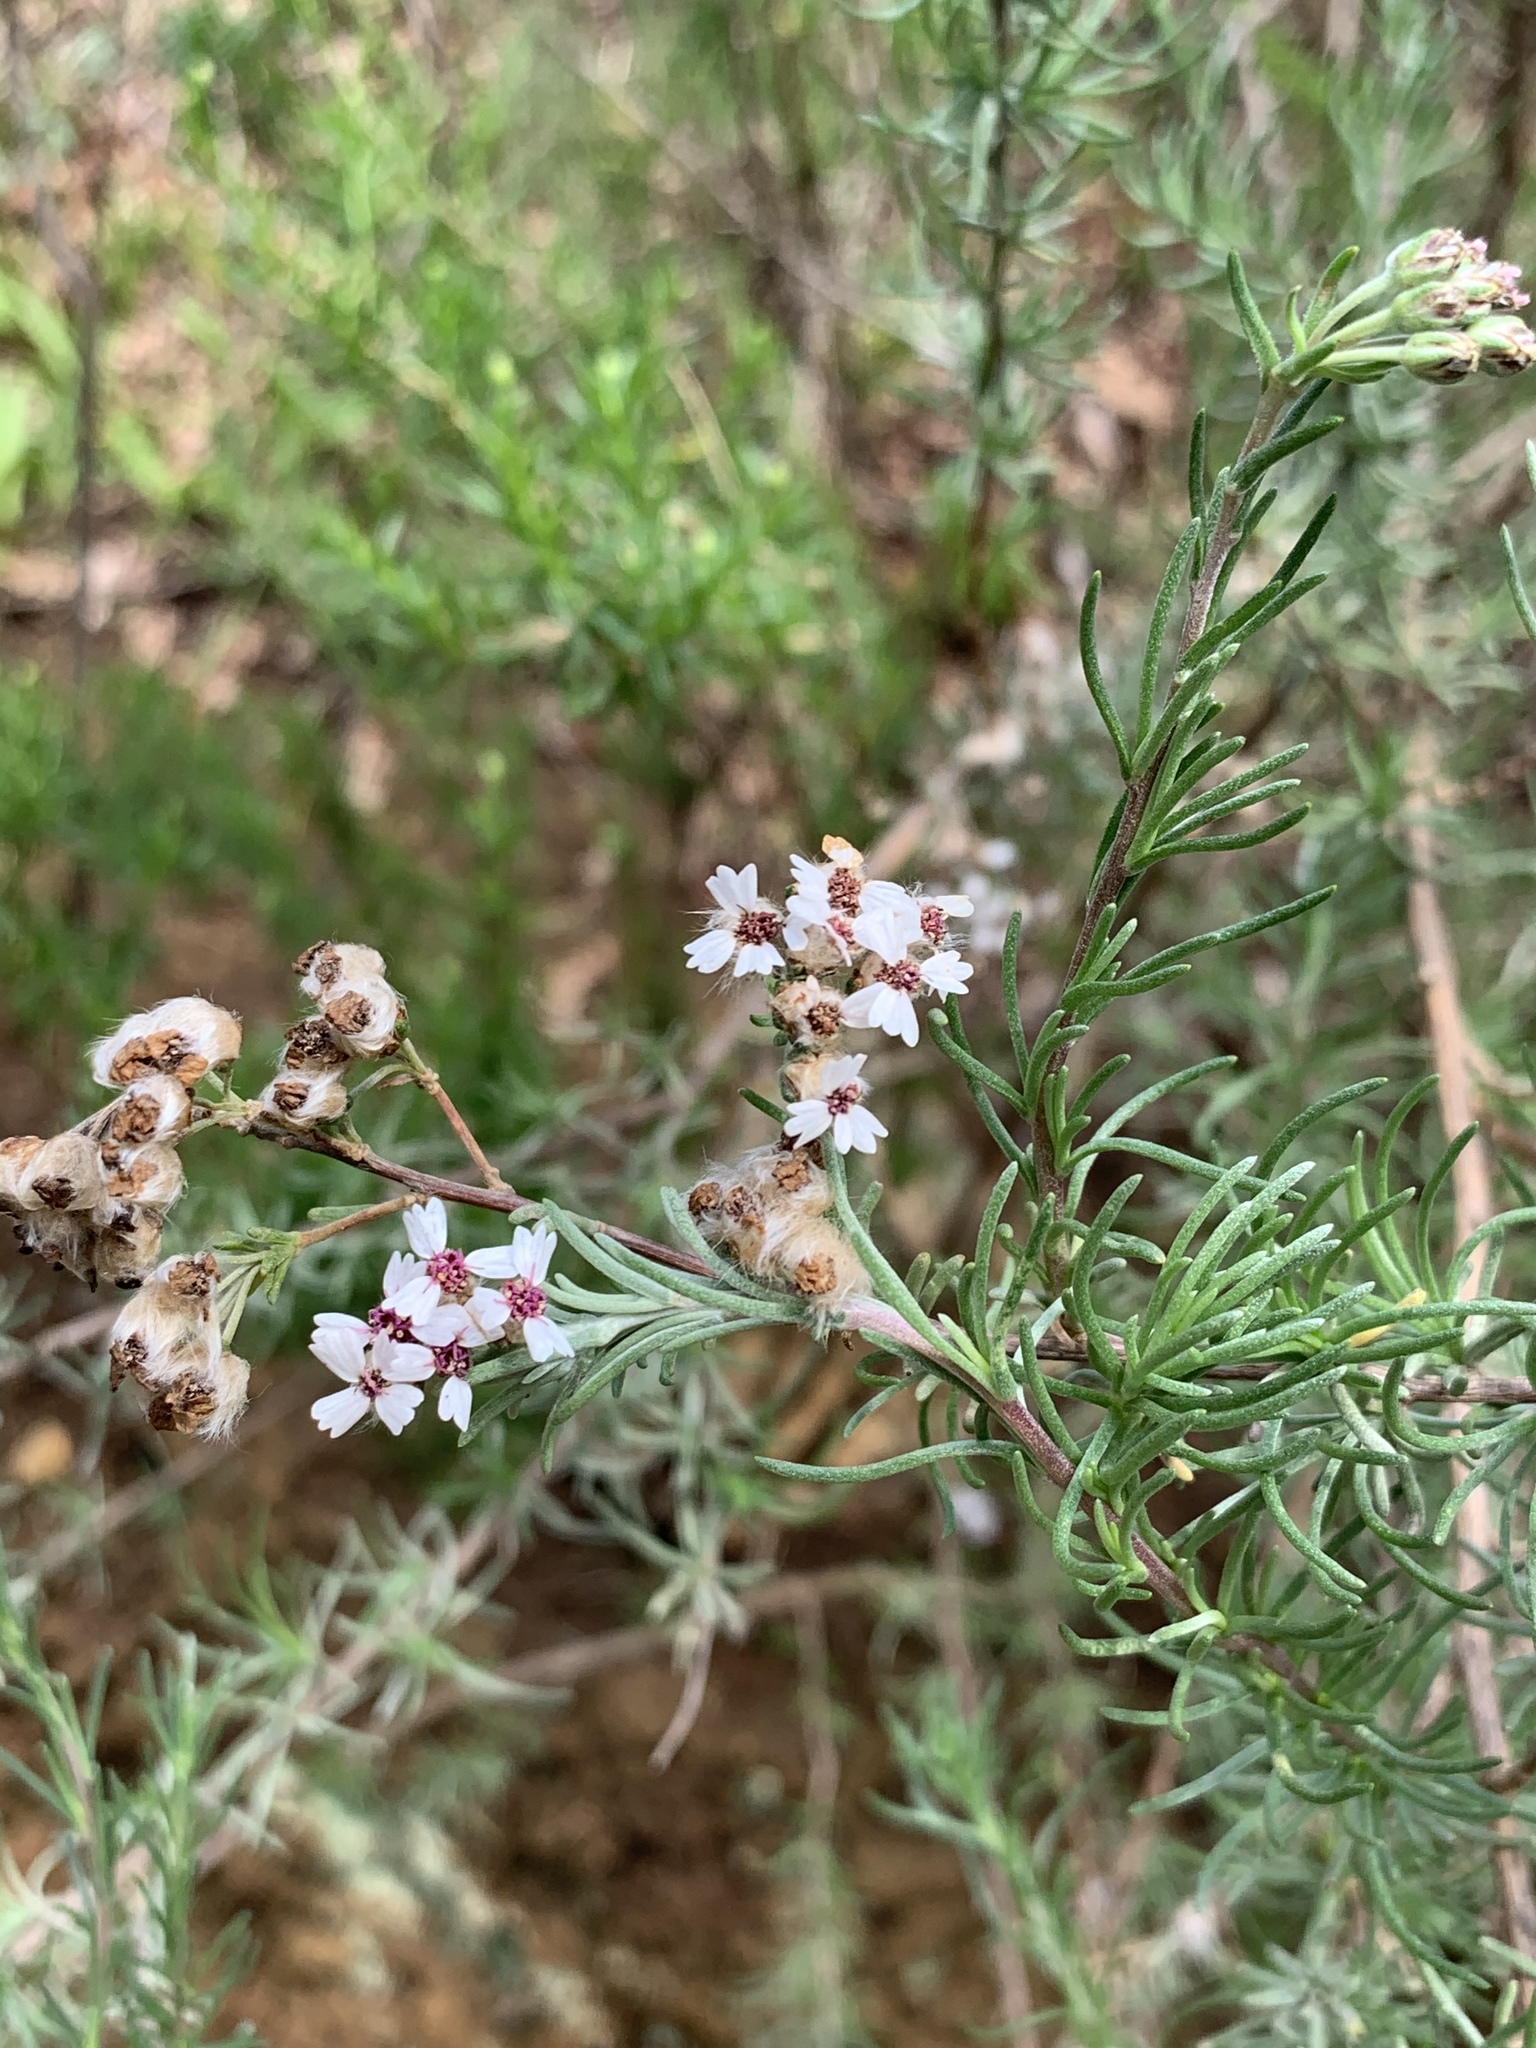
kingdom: Plantae
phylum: Tracheophyta
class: Magnoliopsida
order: Asterales
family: Asteraceae
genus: Eriocephalus
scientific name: Eriocephalus africanus
